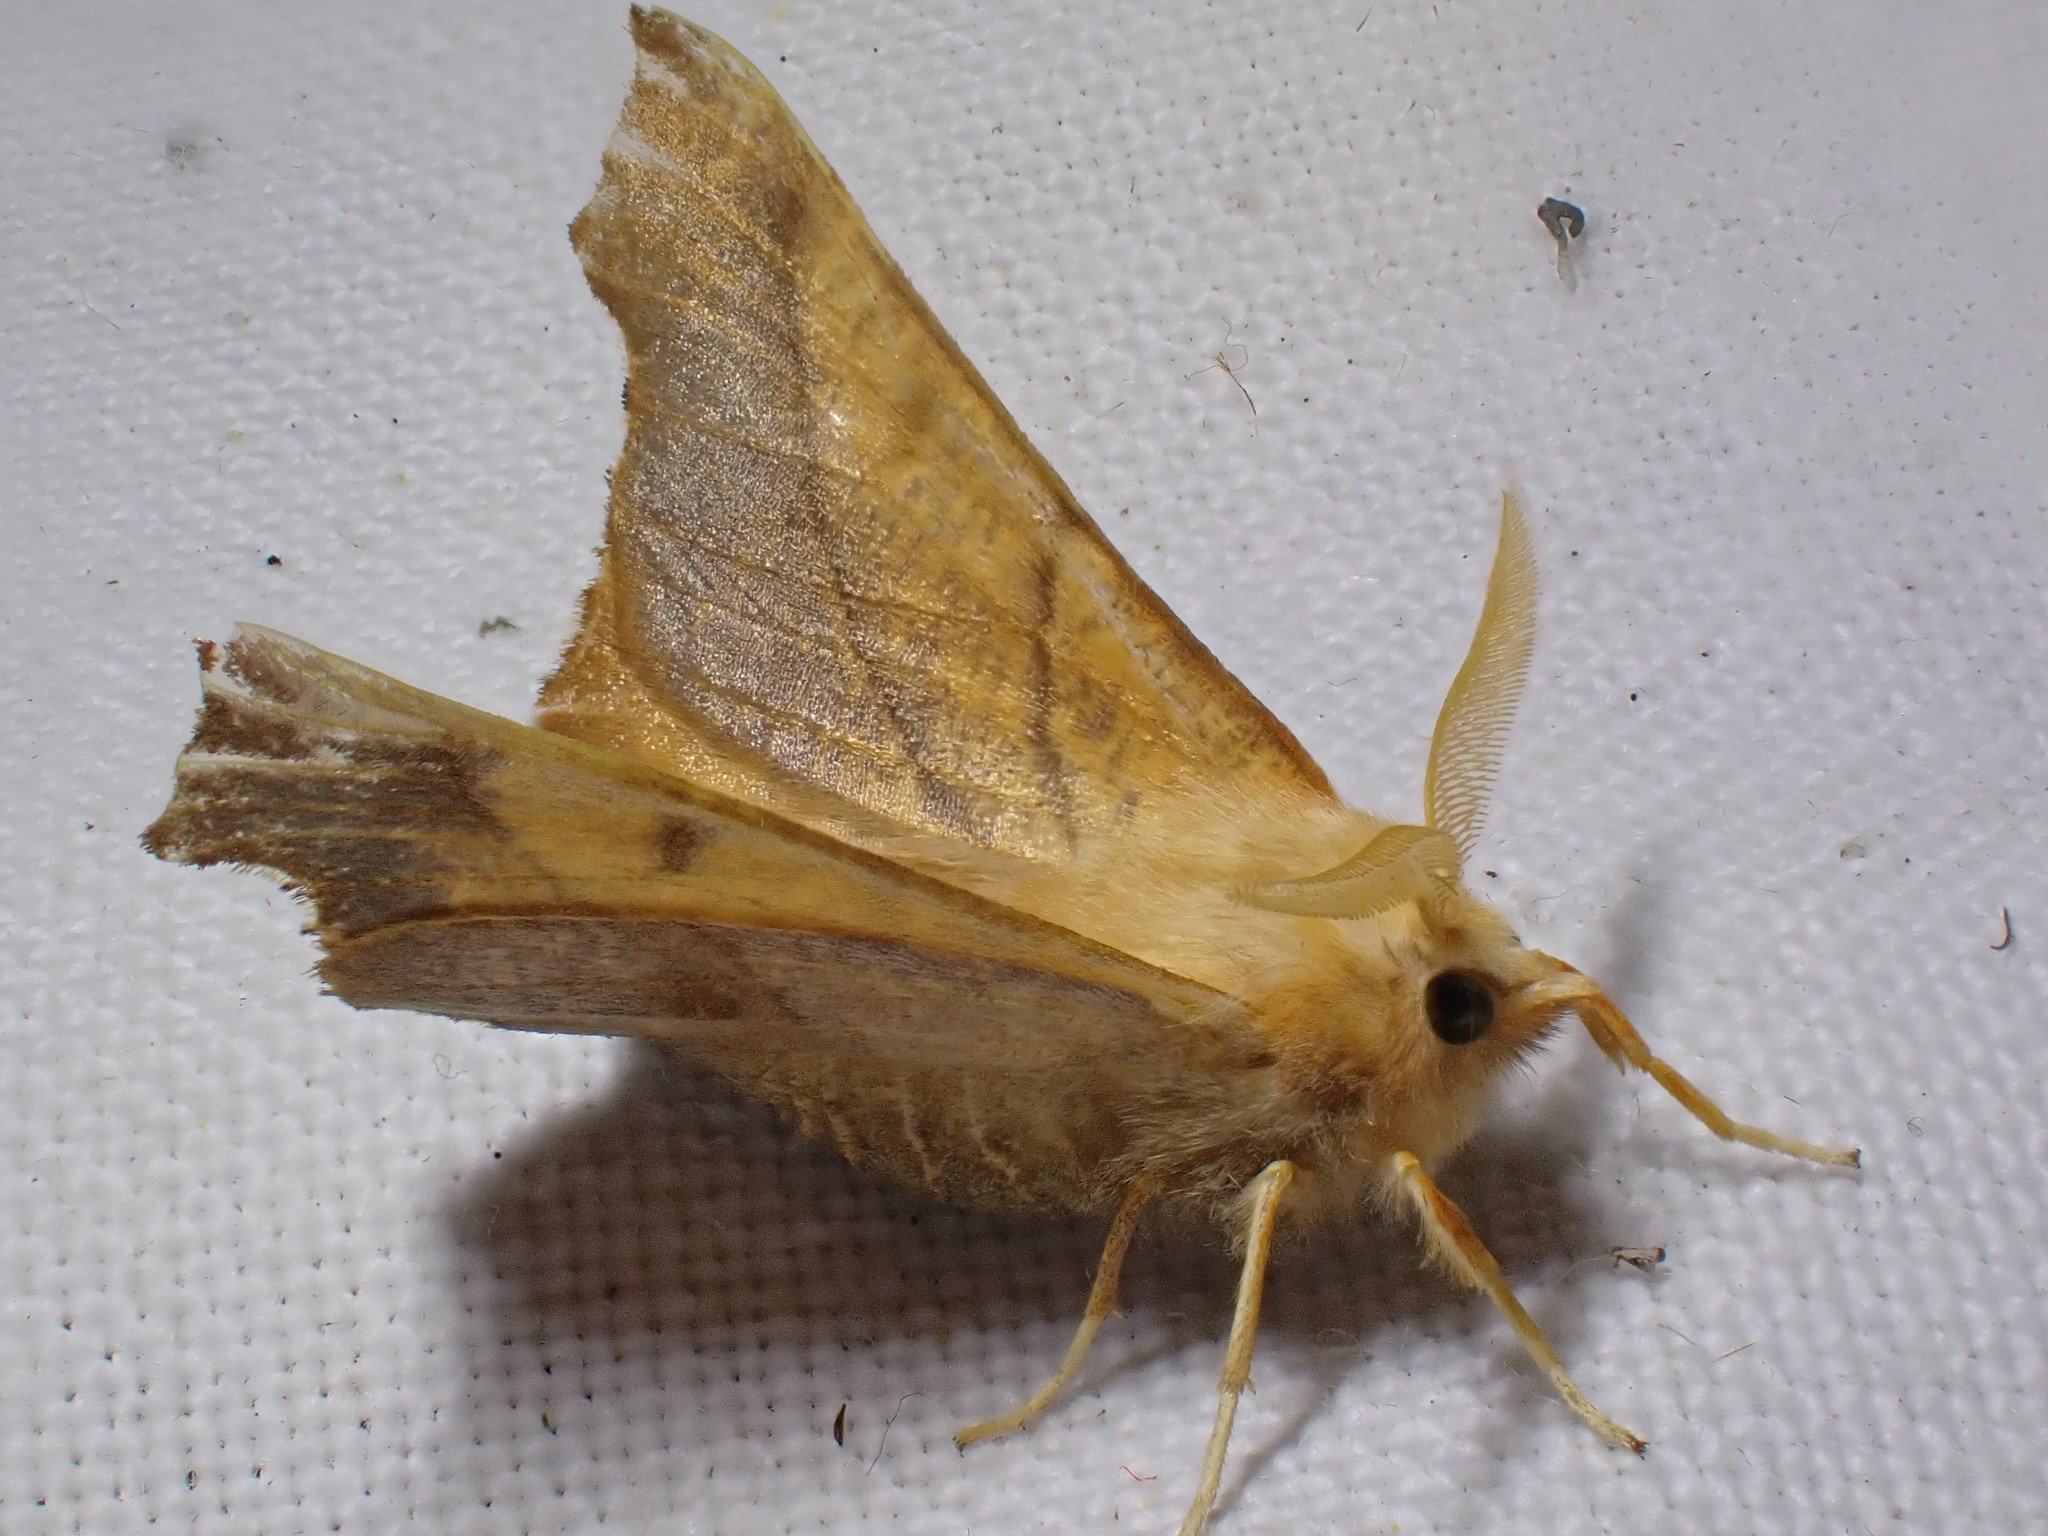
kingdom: Animalia
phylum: Arthropoda
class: Insecta
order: Lepidoptera
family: Geometridae
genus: Ennomos
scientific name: Ennomos fuscantaria
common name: Dusky thorn
